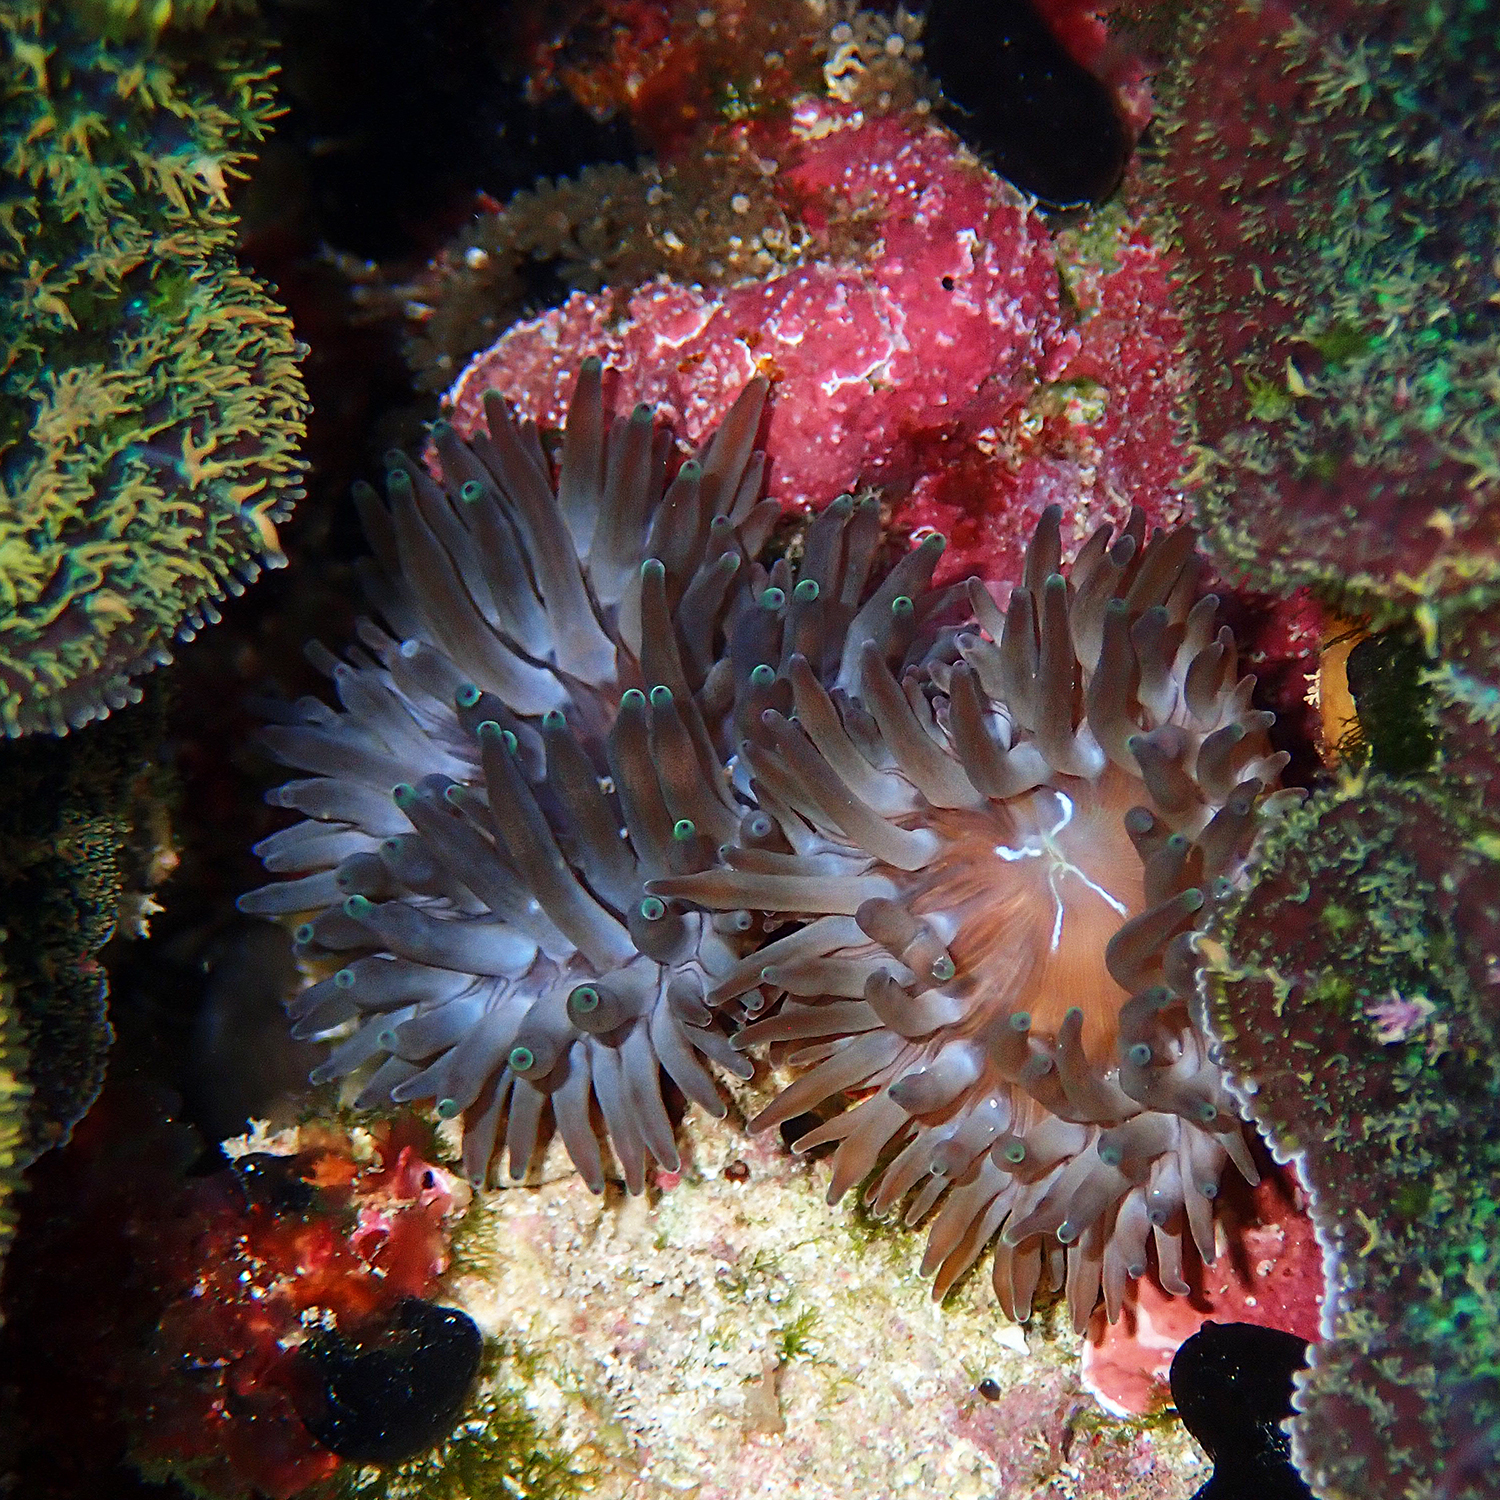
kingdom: Animalia
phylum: Cnidaria
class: Anthozoa
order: Actiniaria
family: Actiniidae
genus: Entacmaea
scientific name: Entacmaea quadricolor
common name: Bulb tentacle sea anemone
